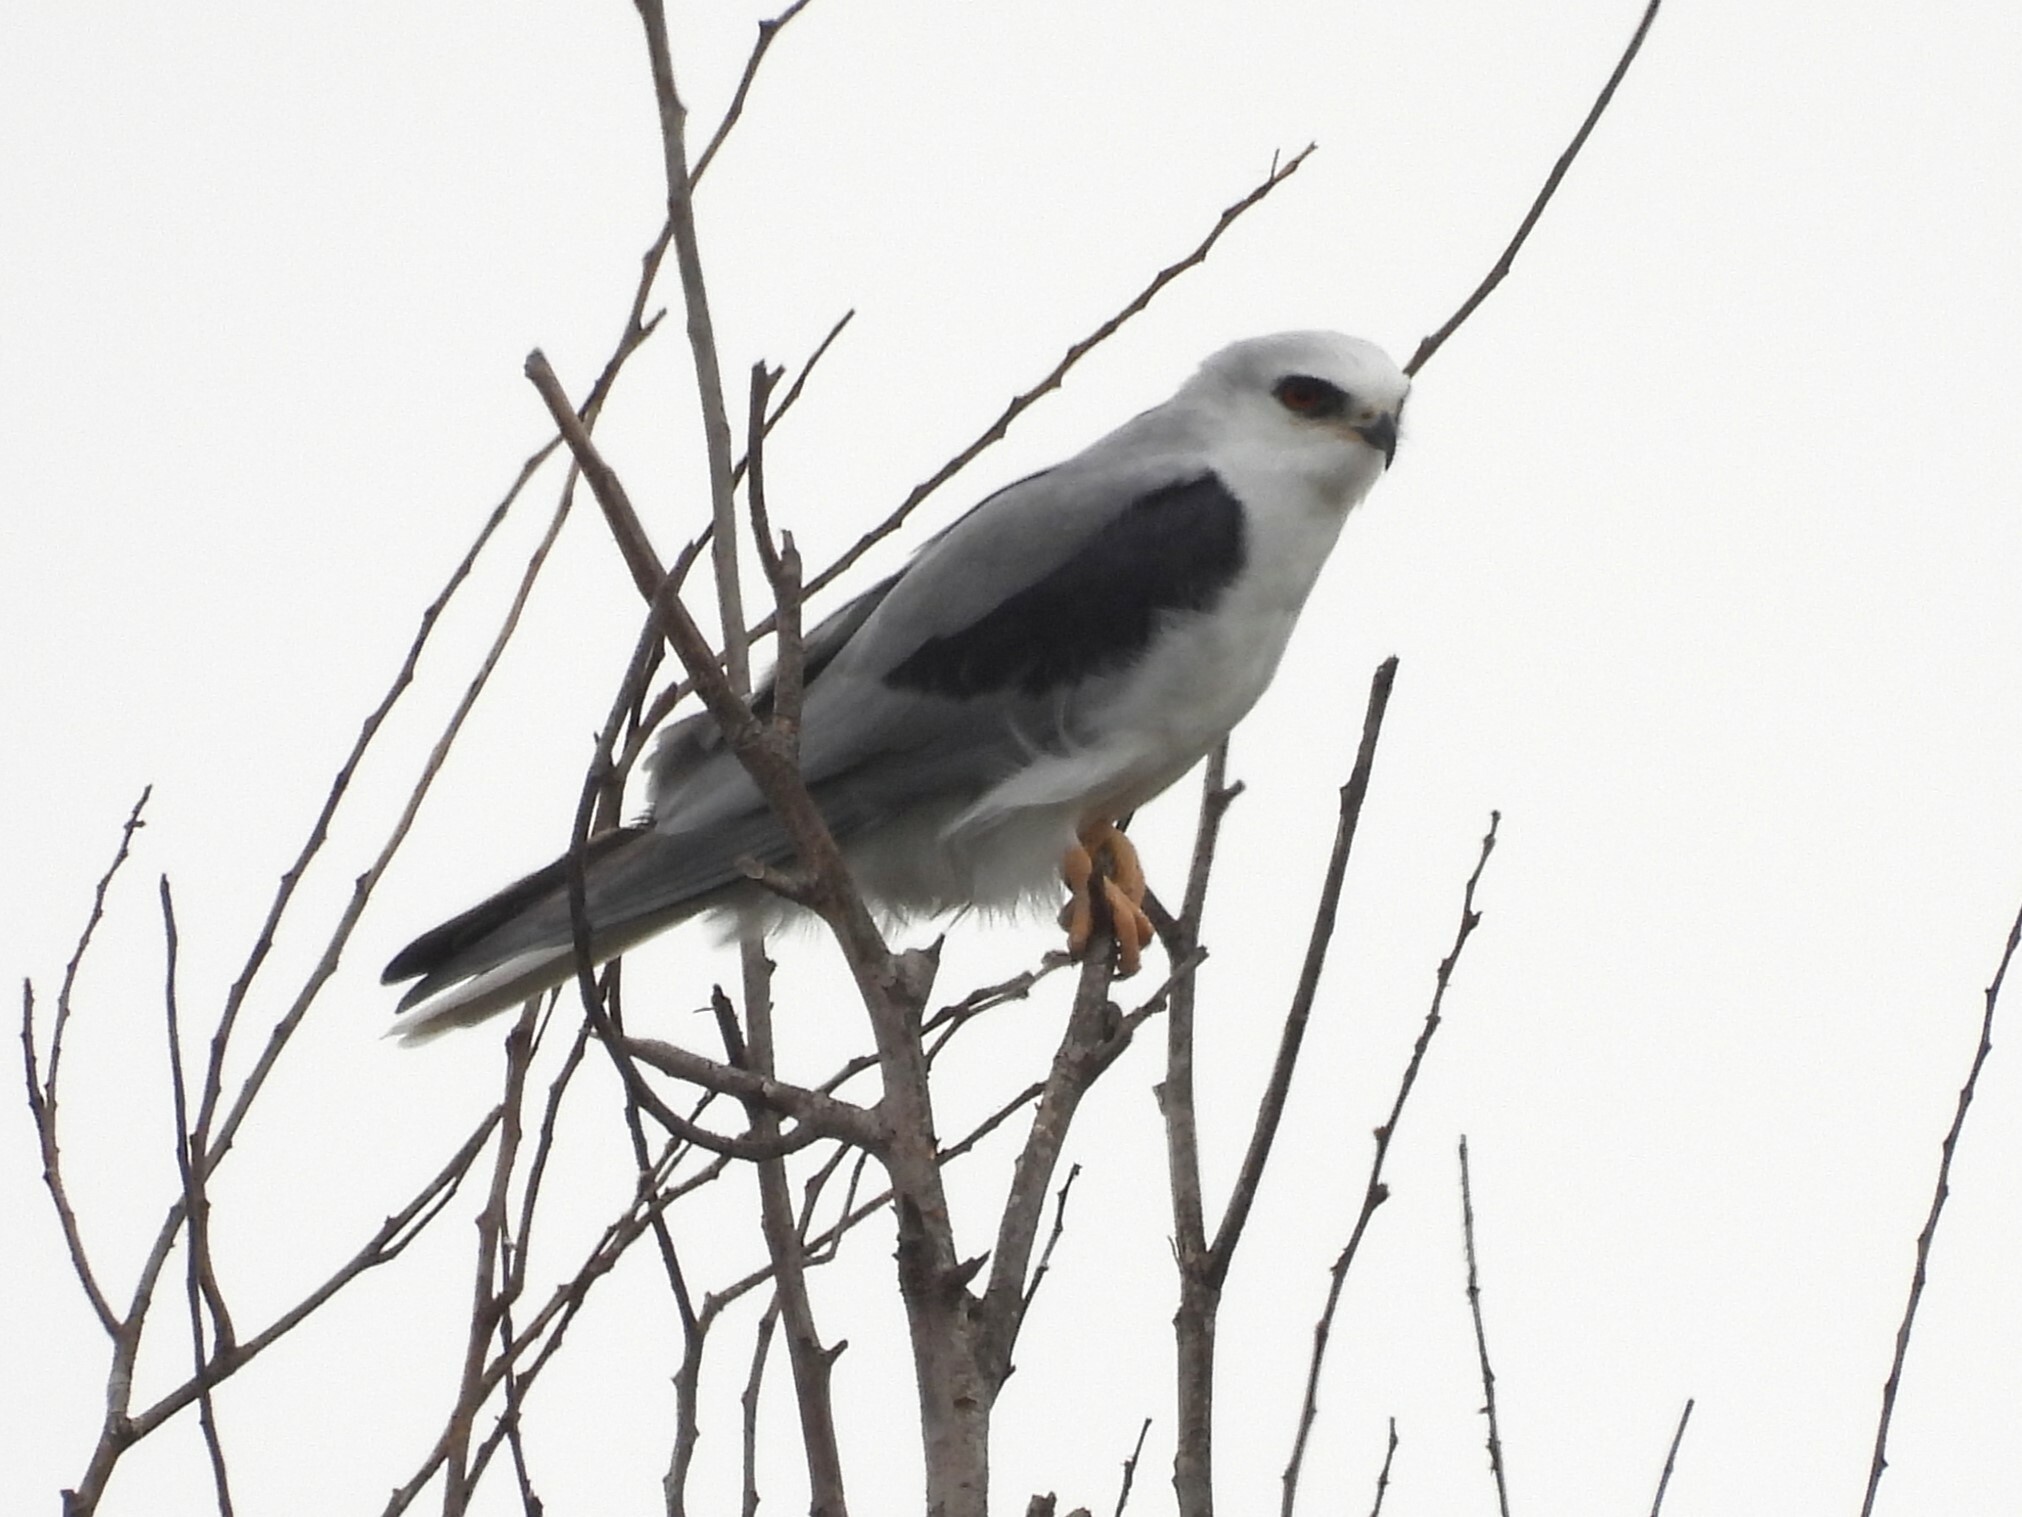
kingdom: Animalia
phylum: Chordata
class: Aves
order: Accipitriformes
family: Accipitridae
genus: Elanus
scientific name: Elanus leucurus
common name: White-tailed kite
